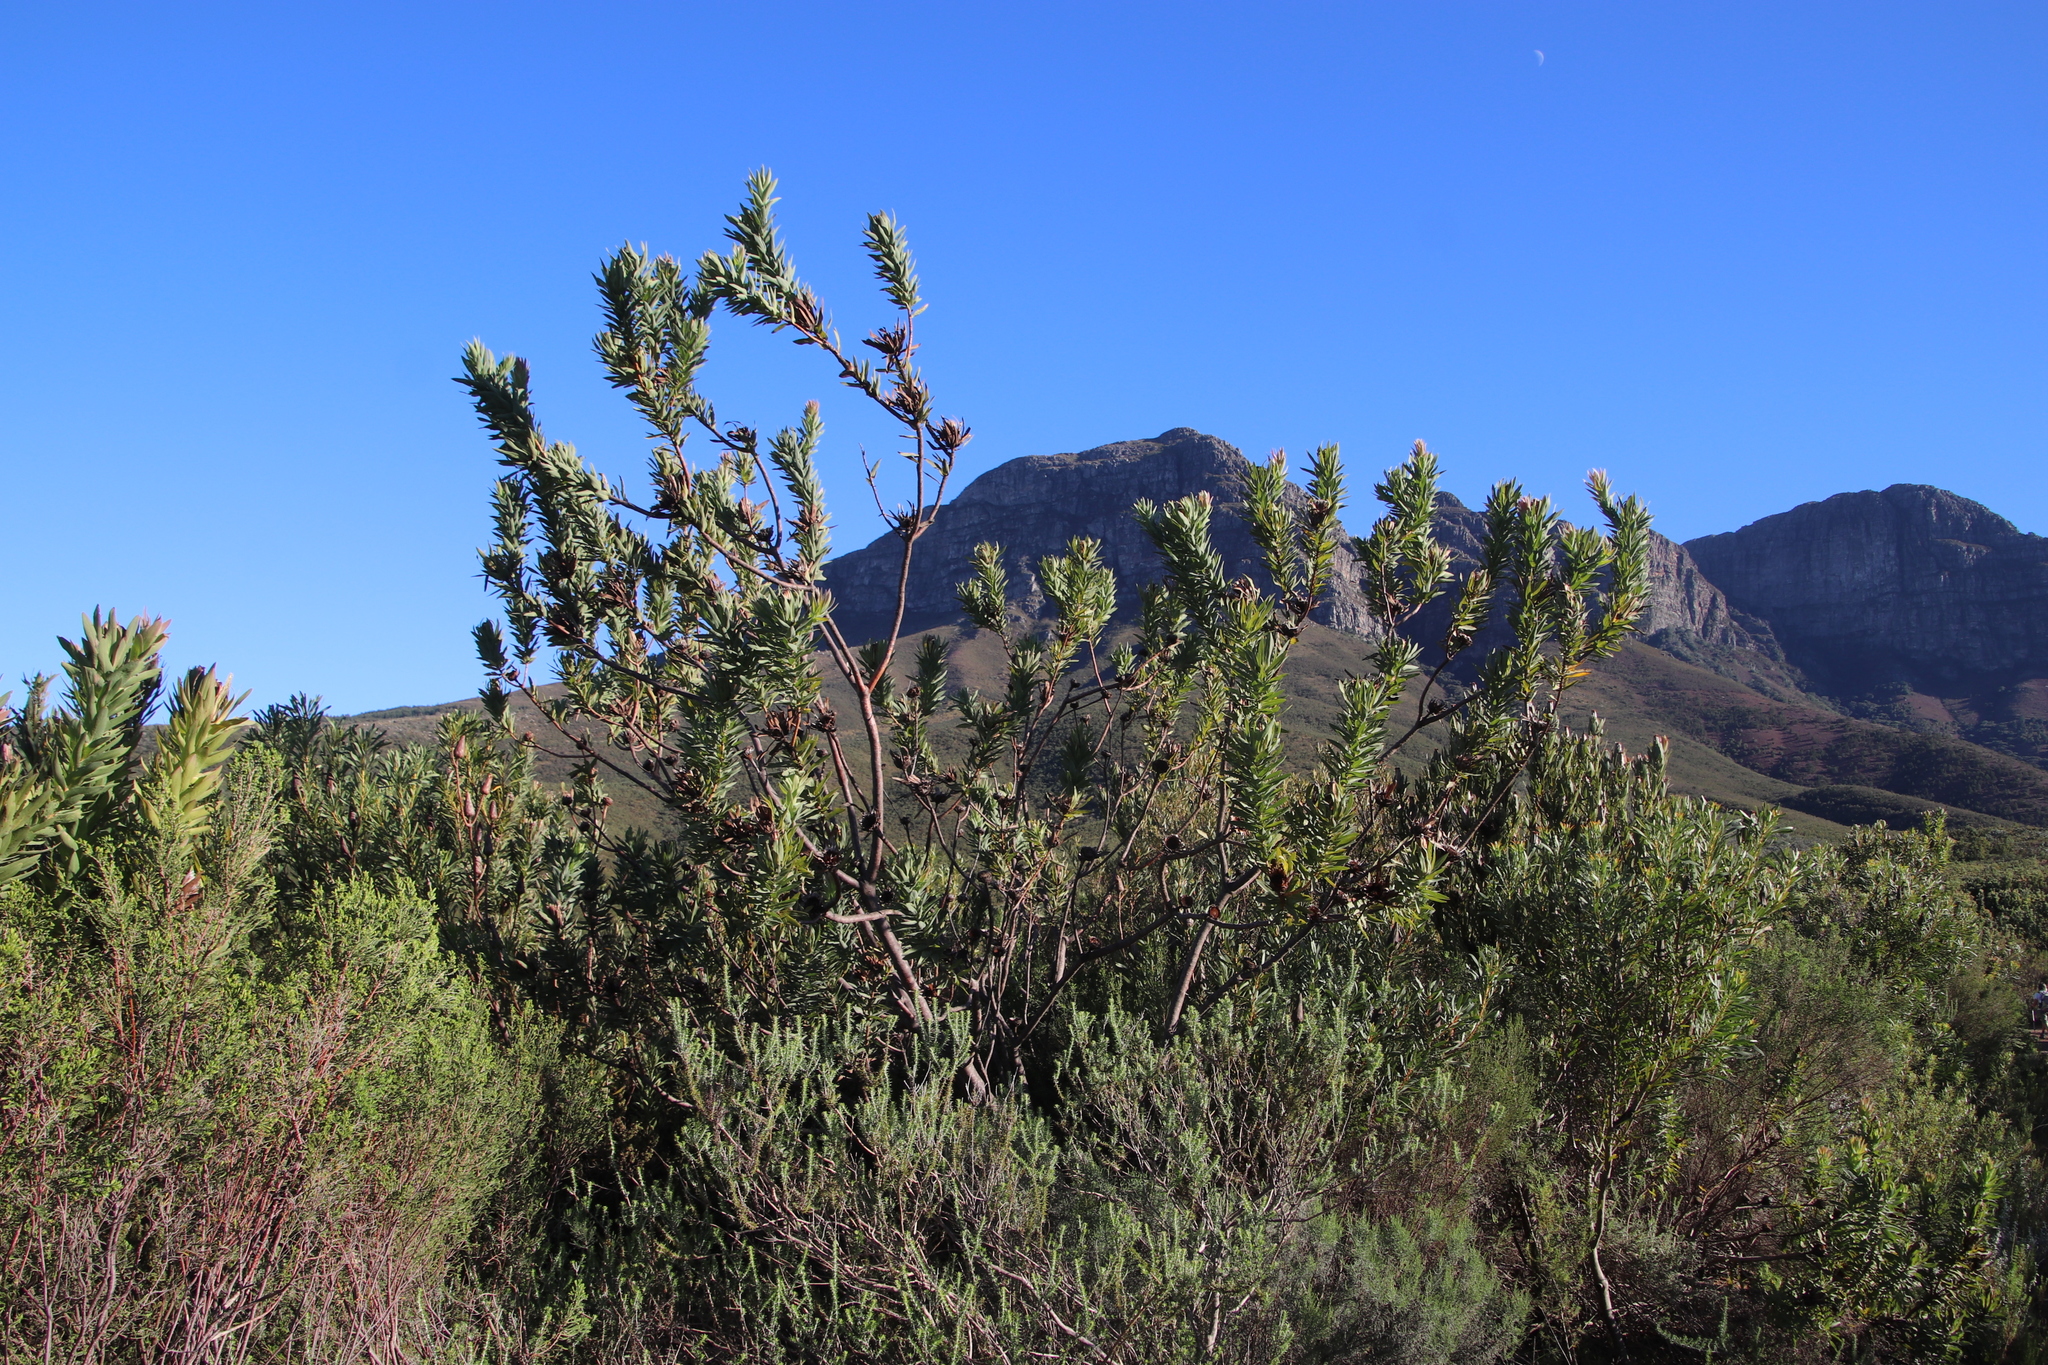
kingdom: Plantae
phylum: Tracheophyta
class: Magnoliopsida
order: Proteales
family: Proteaceae
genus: Protea
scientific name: Protea coronata
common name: Green sugarbush
